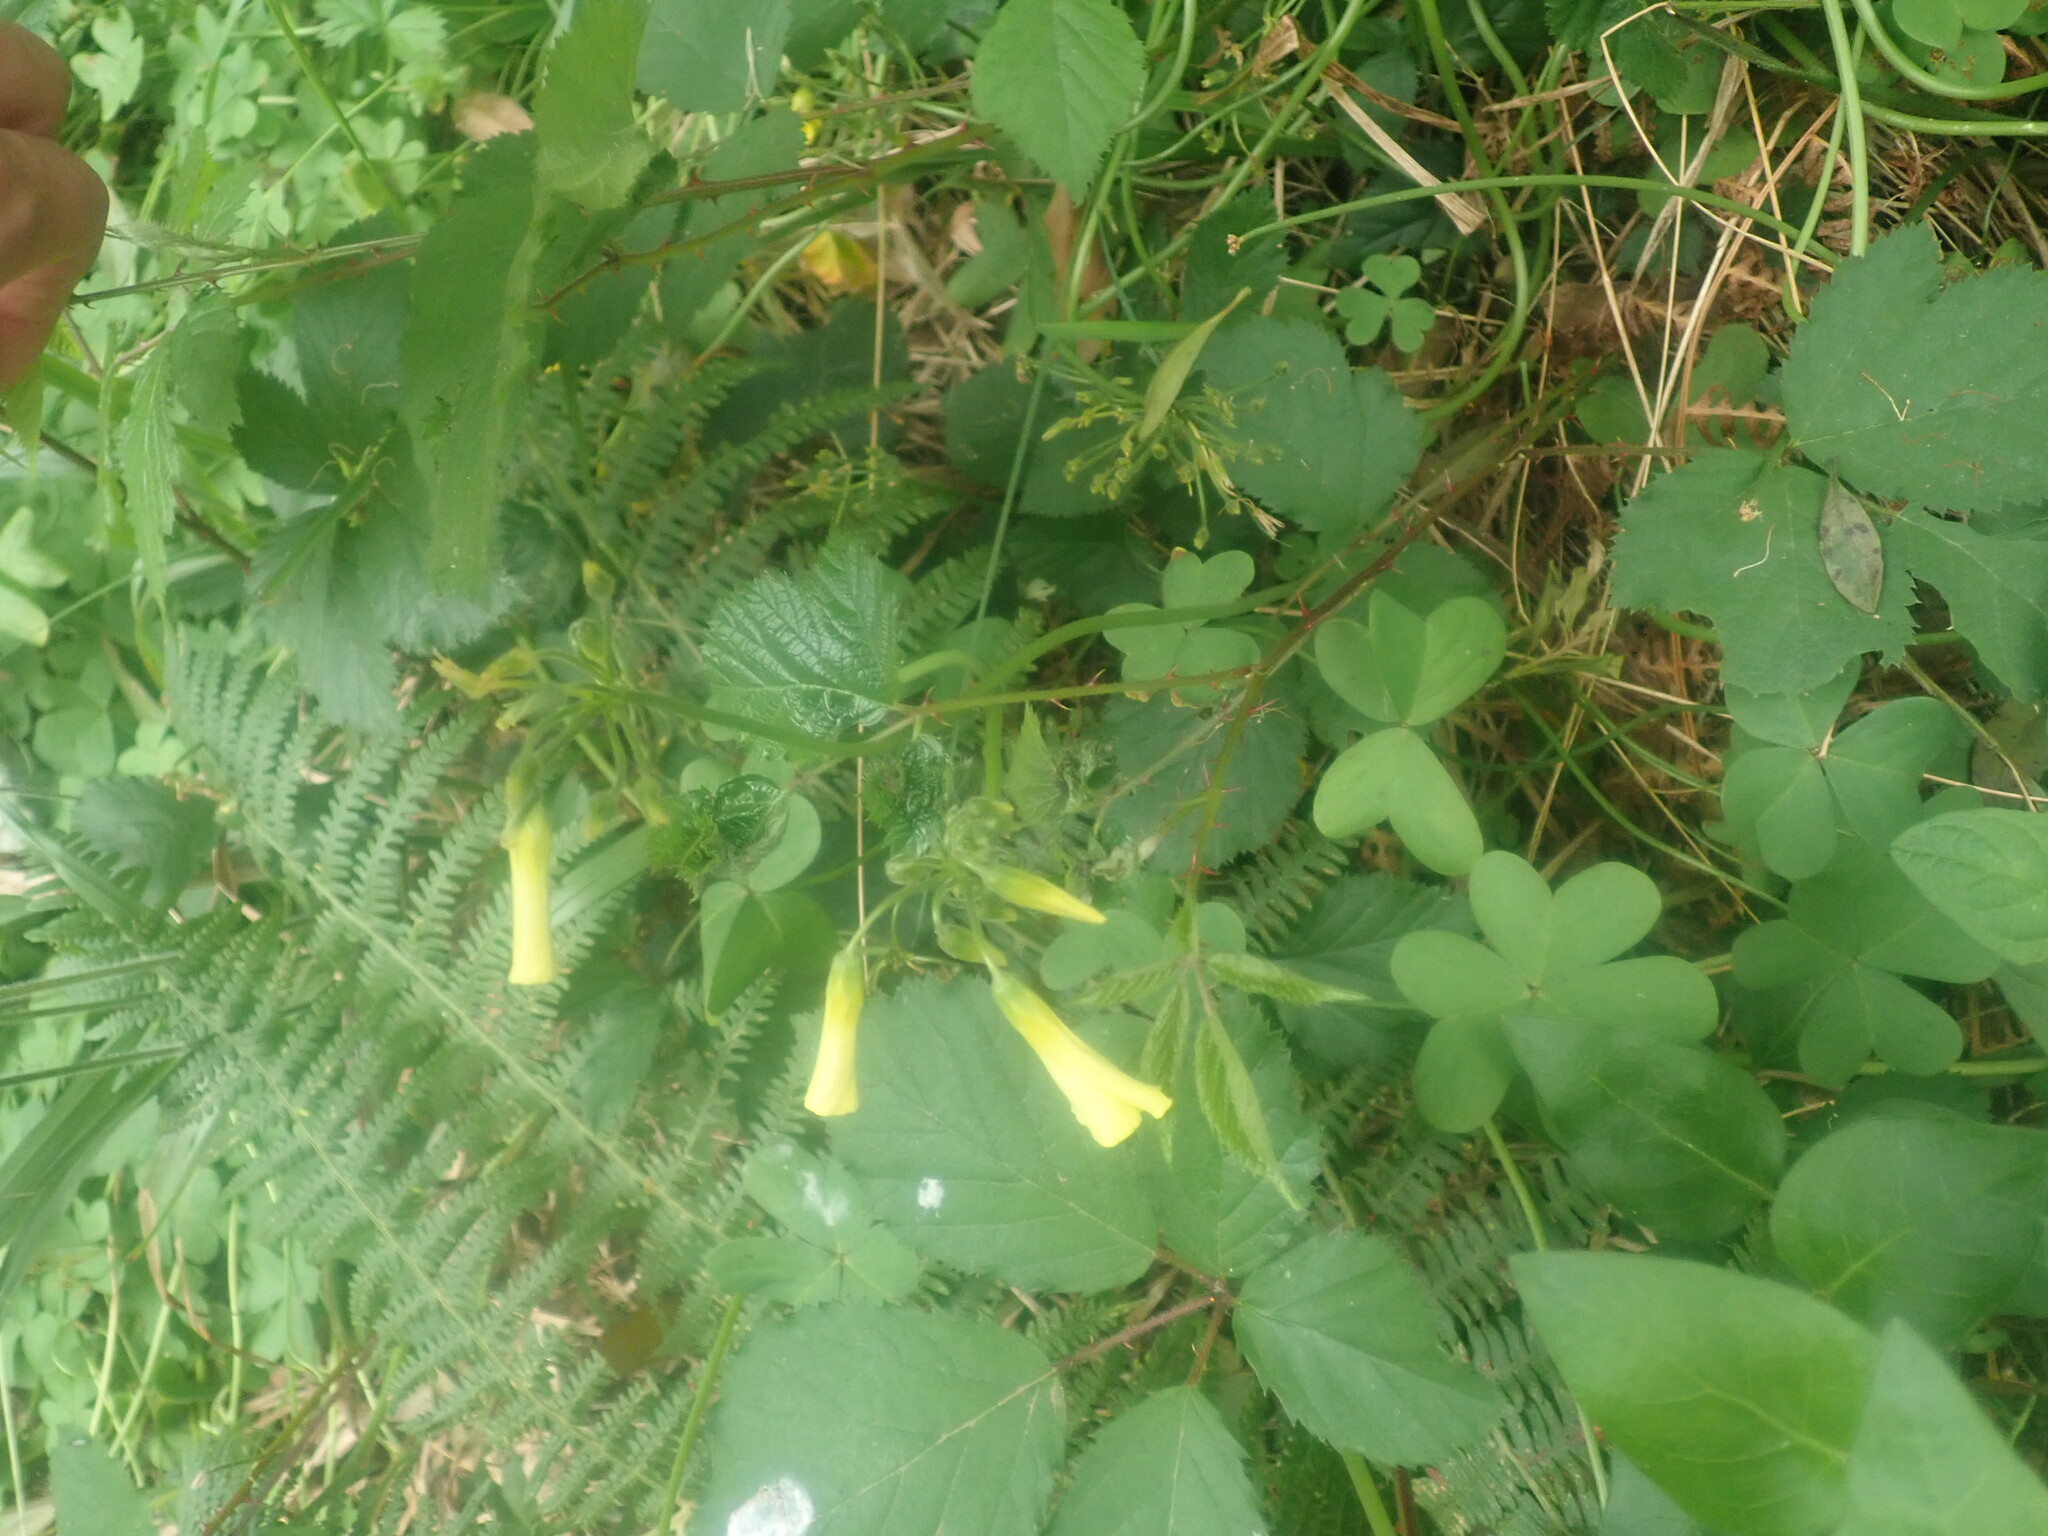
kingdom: Plantae
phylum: Tracheophyta
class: Magnoliopsida
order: Oxalidales
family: Oxalidaceae
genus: Oxalis
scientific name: Oxalis pes-caprae
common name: Bermuda-buttercup
